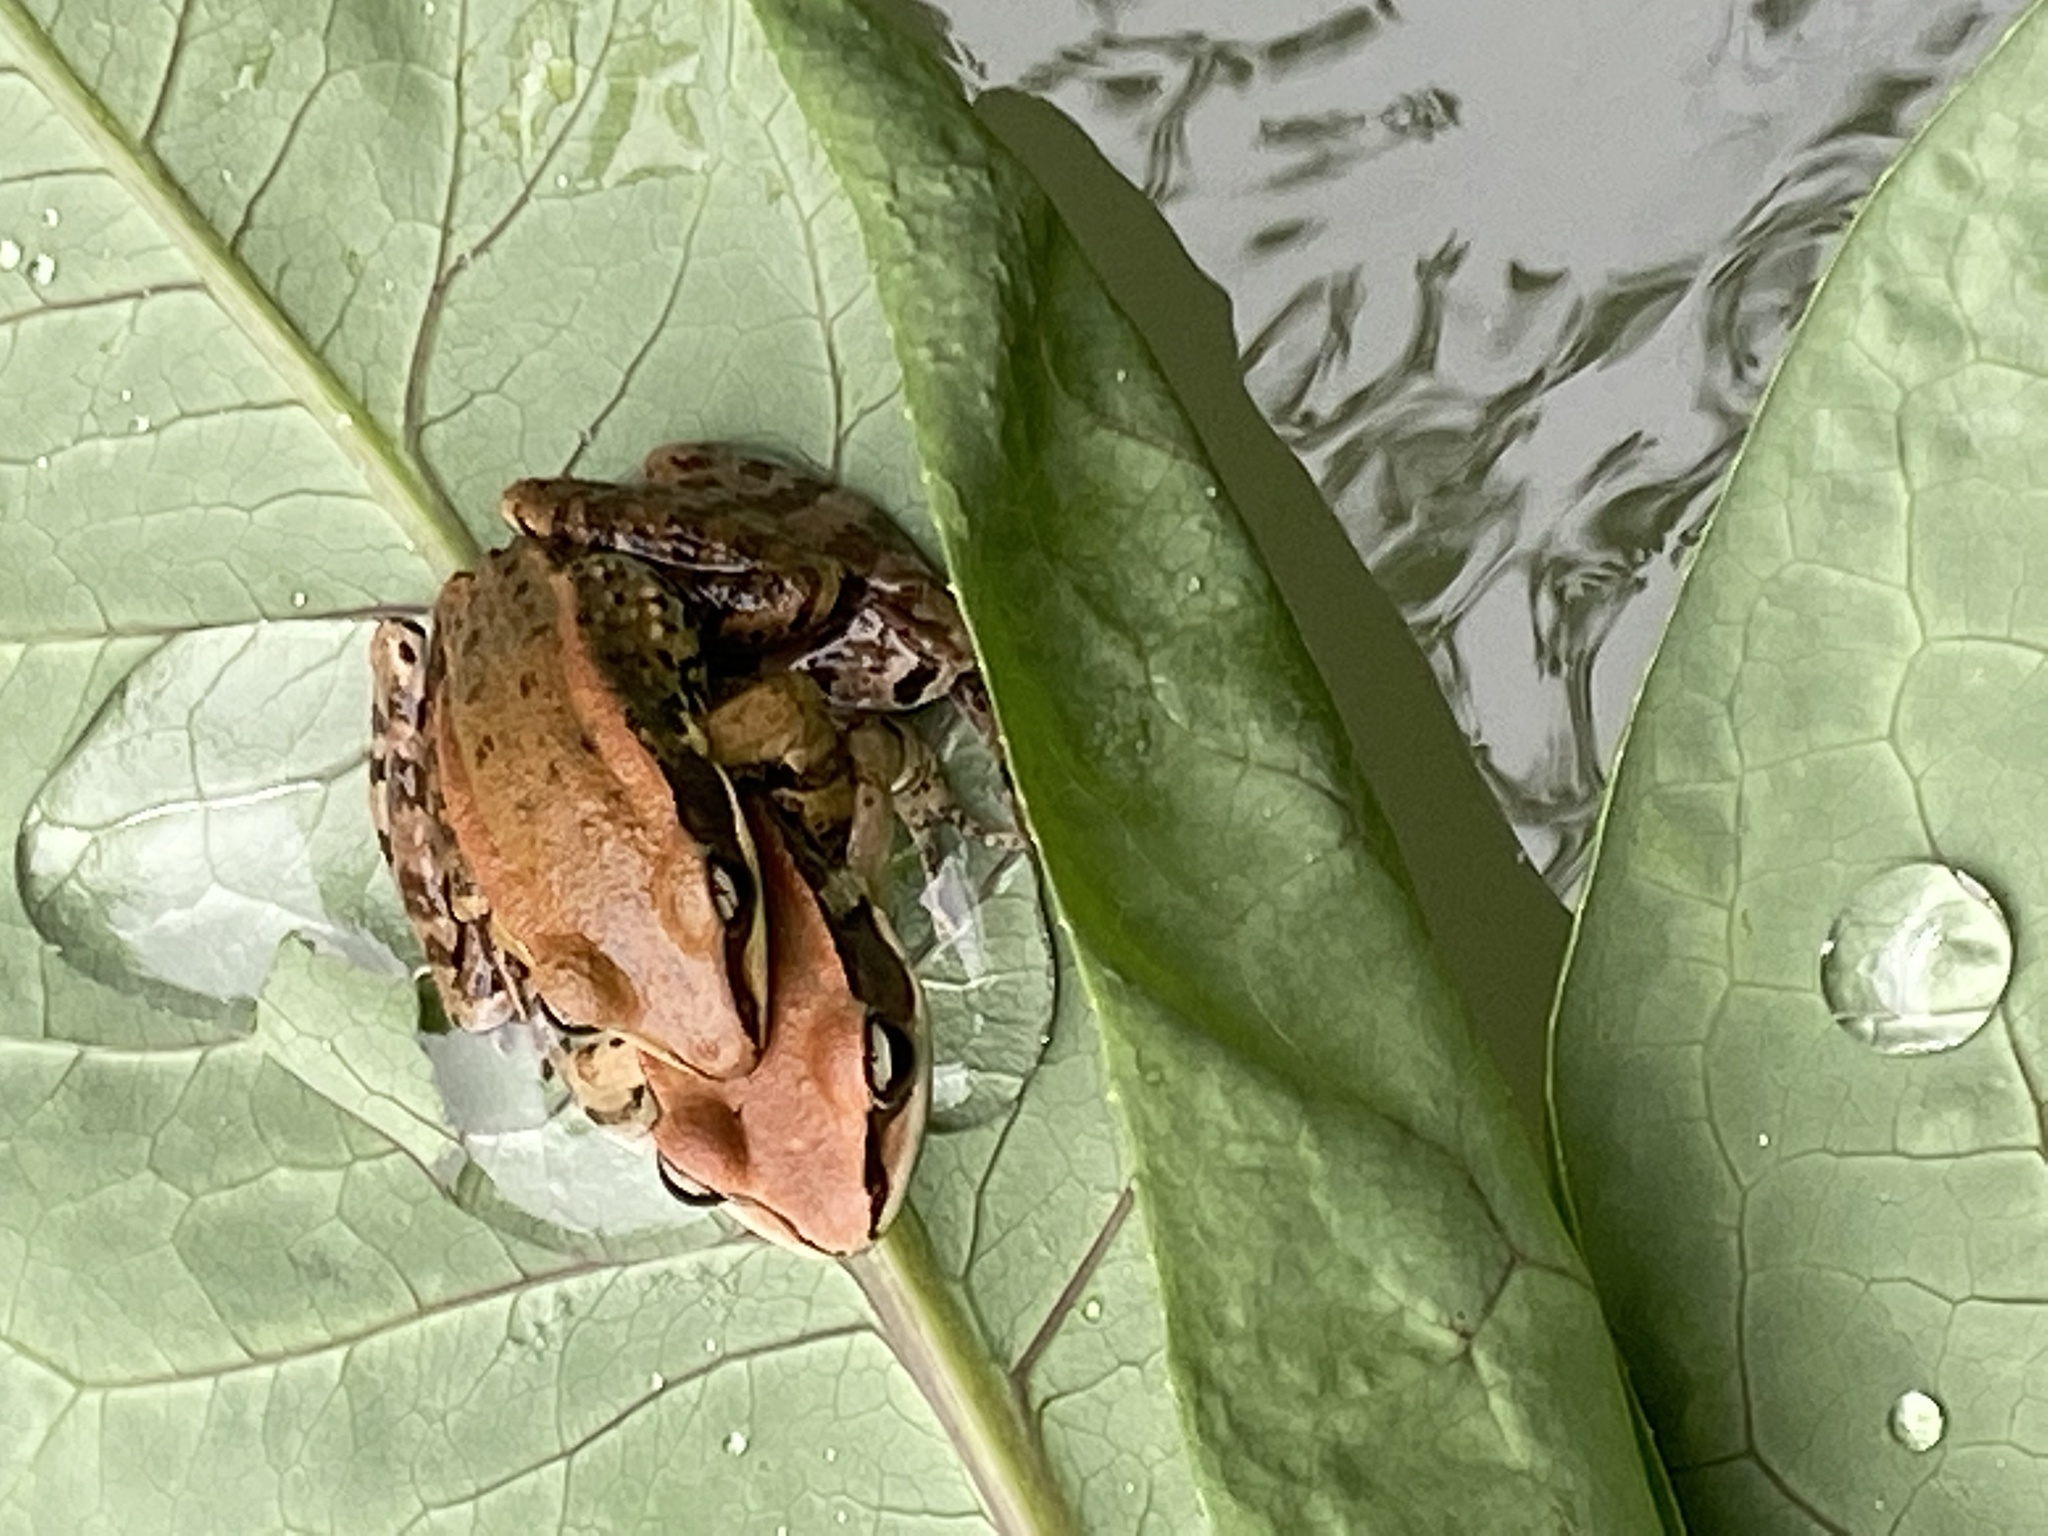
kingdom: Animalia
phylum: Chordata
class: Amphibia
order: Anura
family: Ranidae
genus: Hylarana
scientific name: Hylarana latouchii
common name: Broad-folded frog
